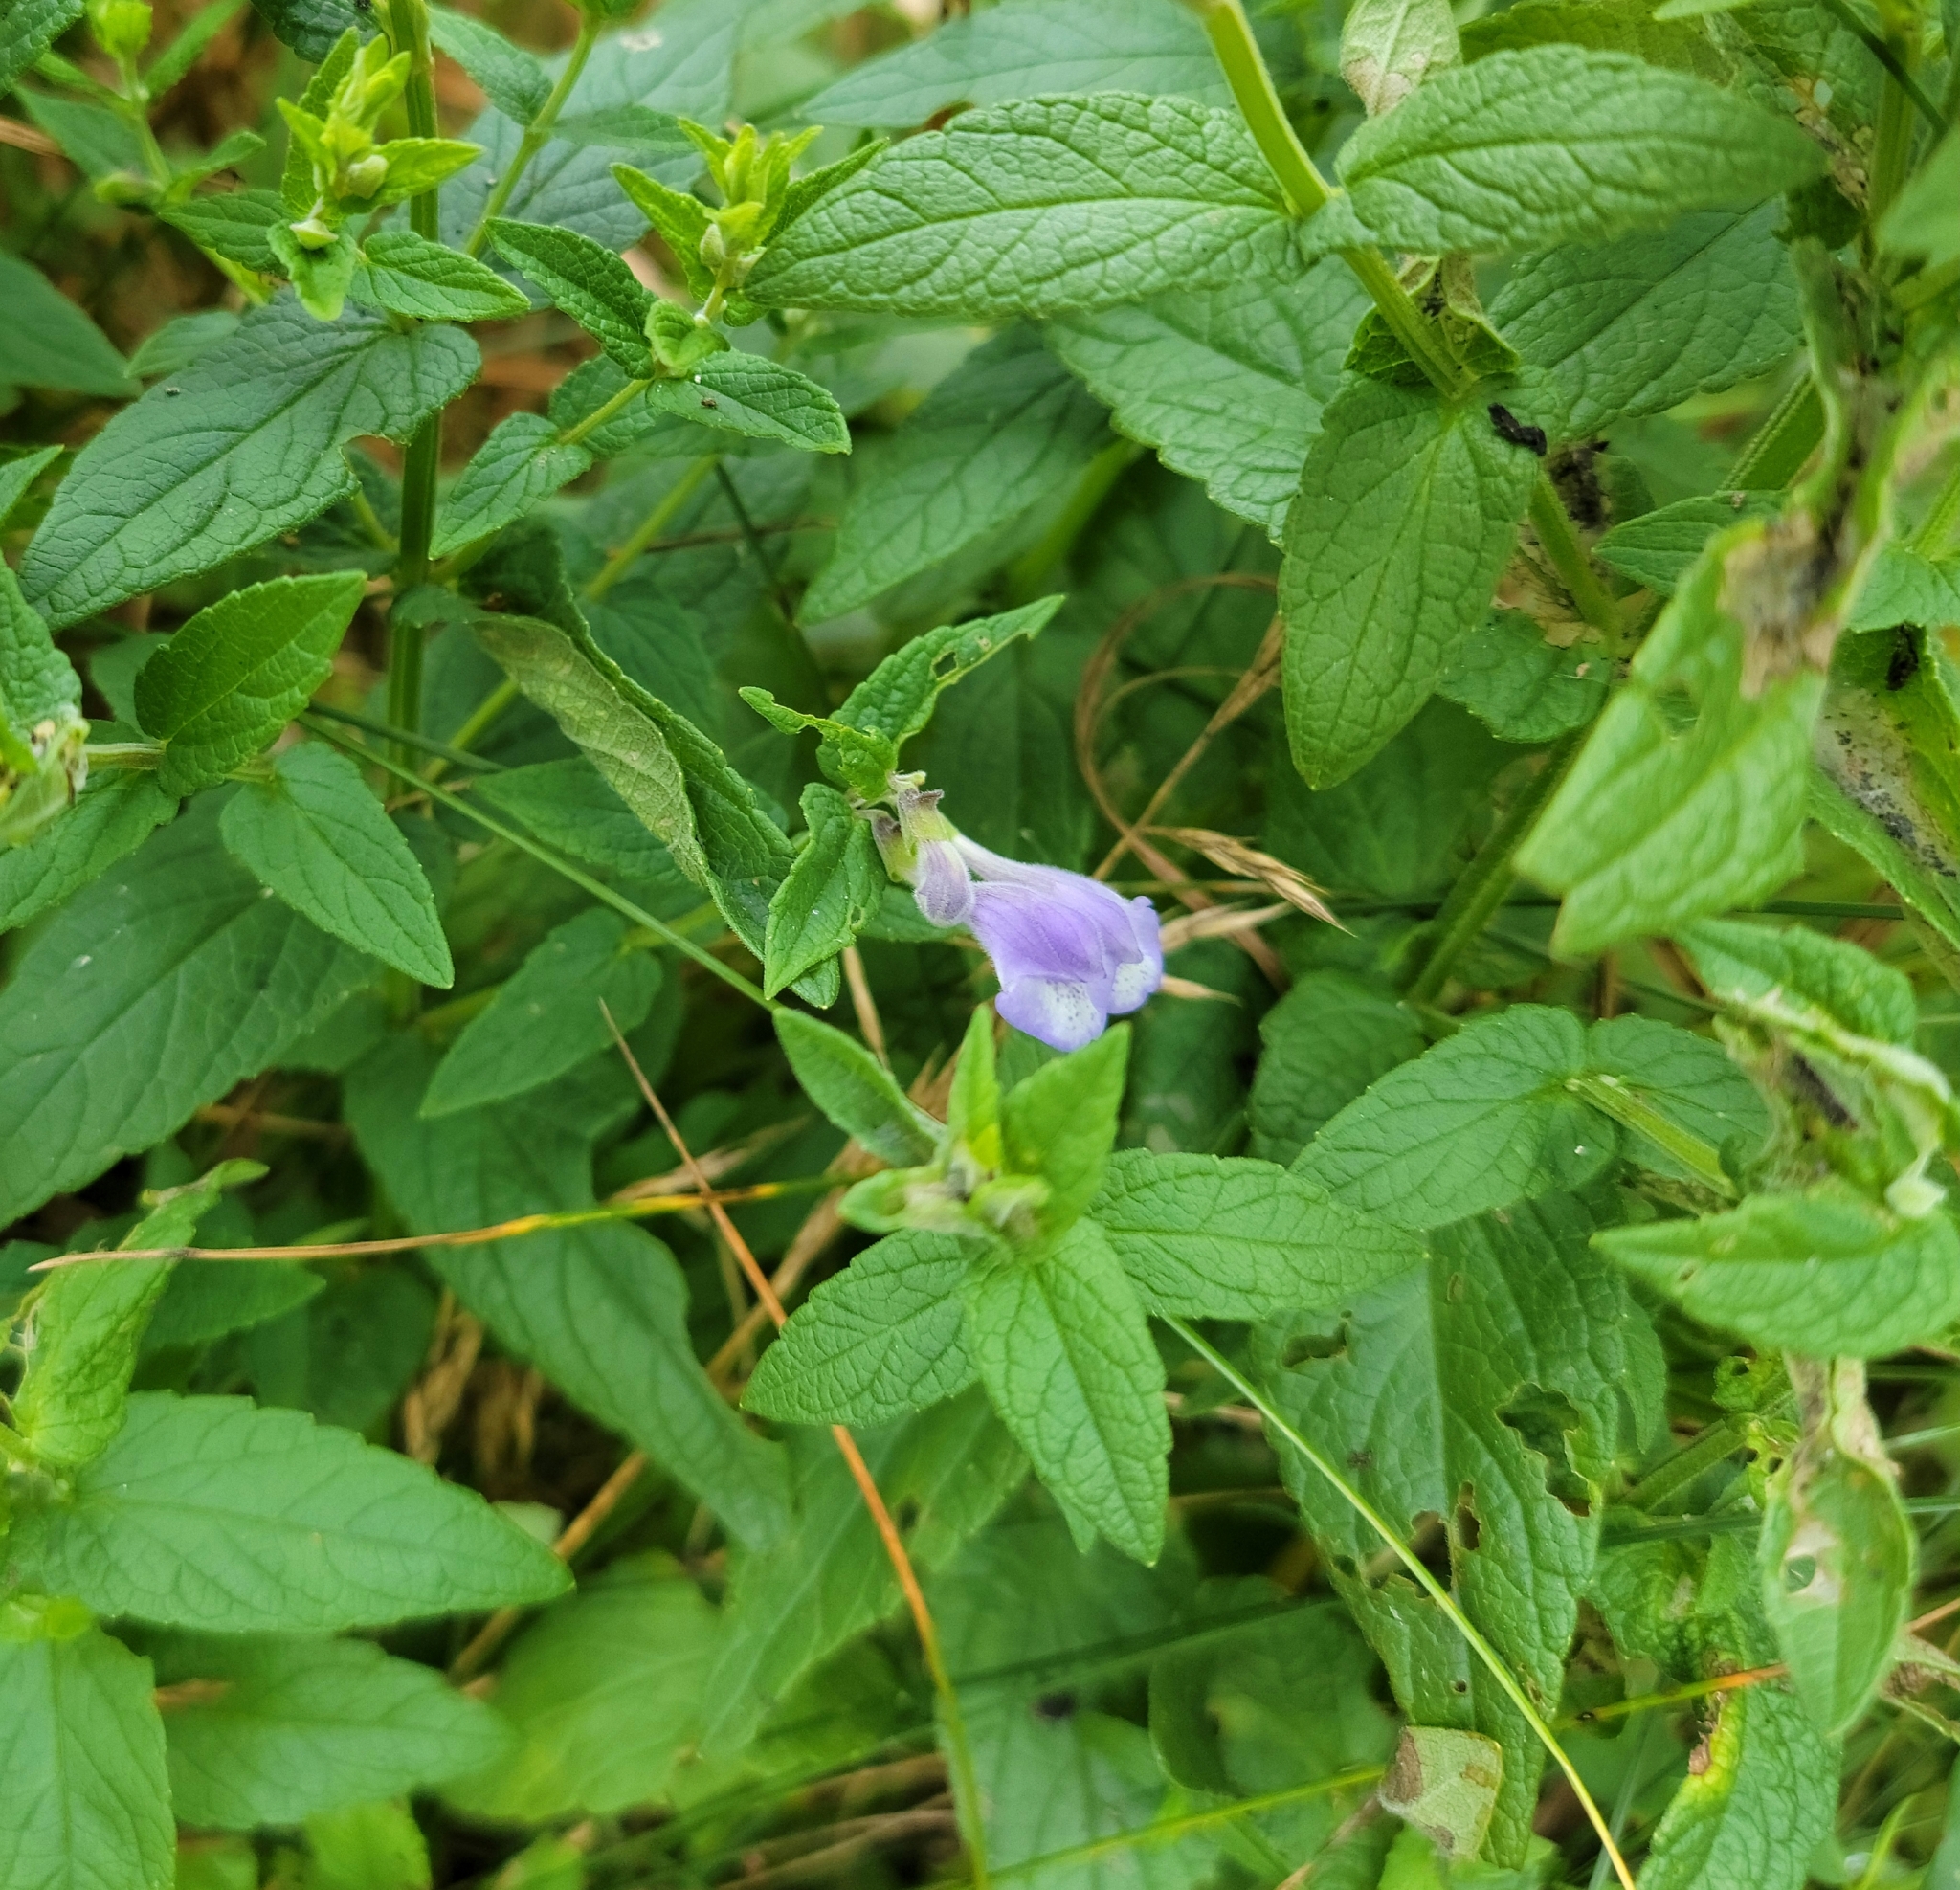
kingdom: Plantae
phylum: Tracheophyta
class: Magnoliopsida
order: Lamiales
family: Lamiaceae
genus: Scutellaria
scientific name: Scutellaria galericulata
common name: Skullcap
